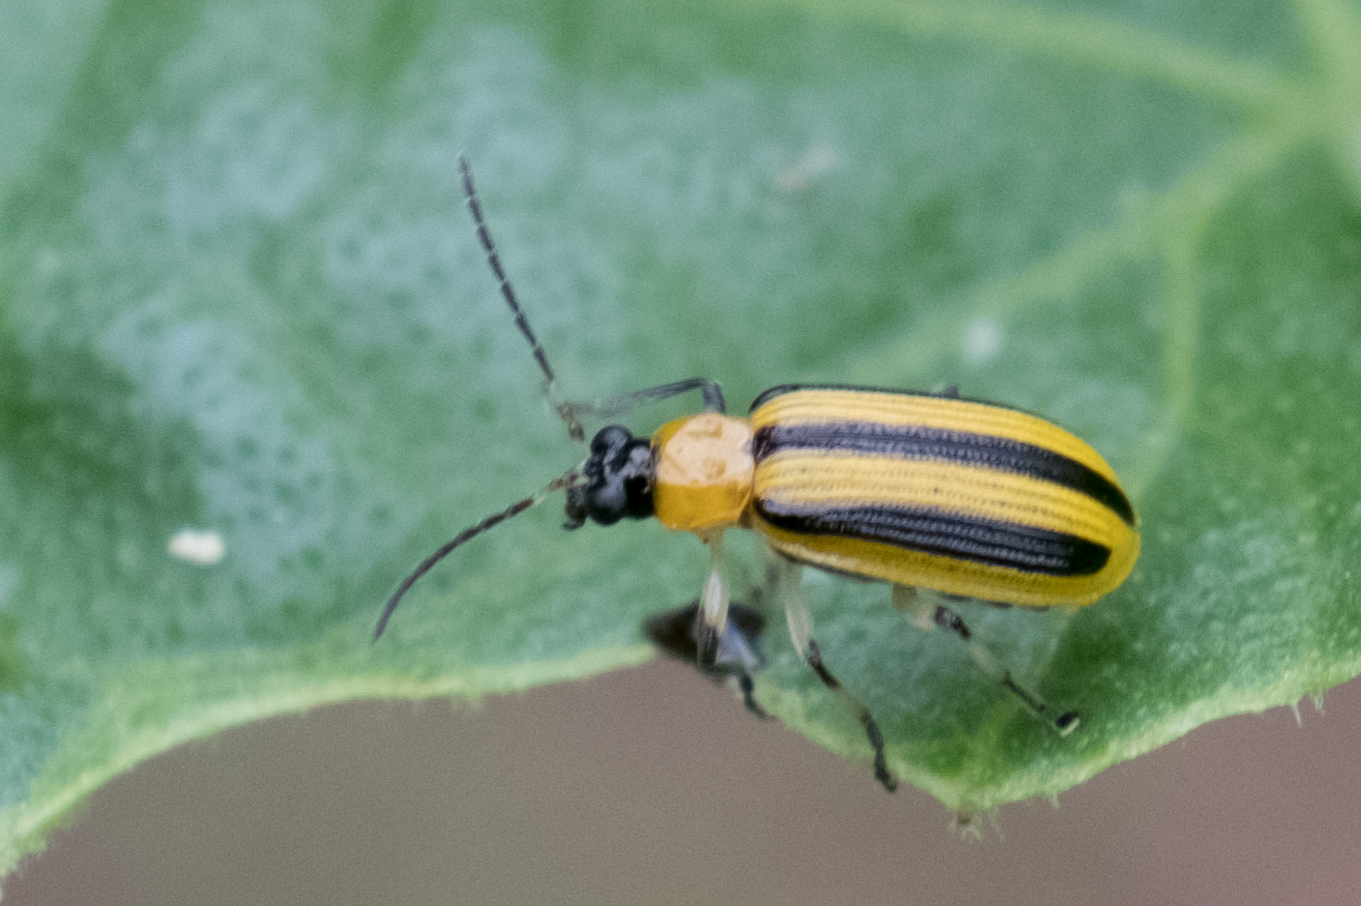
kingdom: Animalia
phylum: Arthropoda
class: Insecta
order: Coleoptera
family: Chrysomelidae
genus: Acalymma
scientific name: Acalymma vittatum
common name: Striped cucumber beetle
